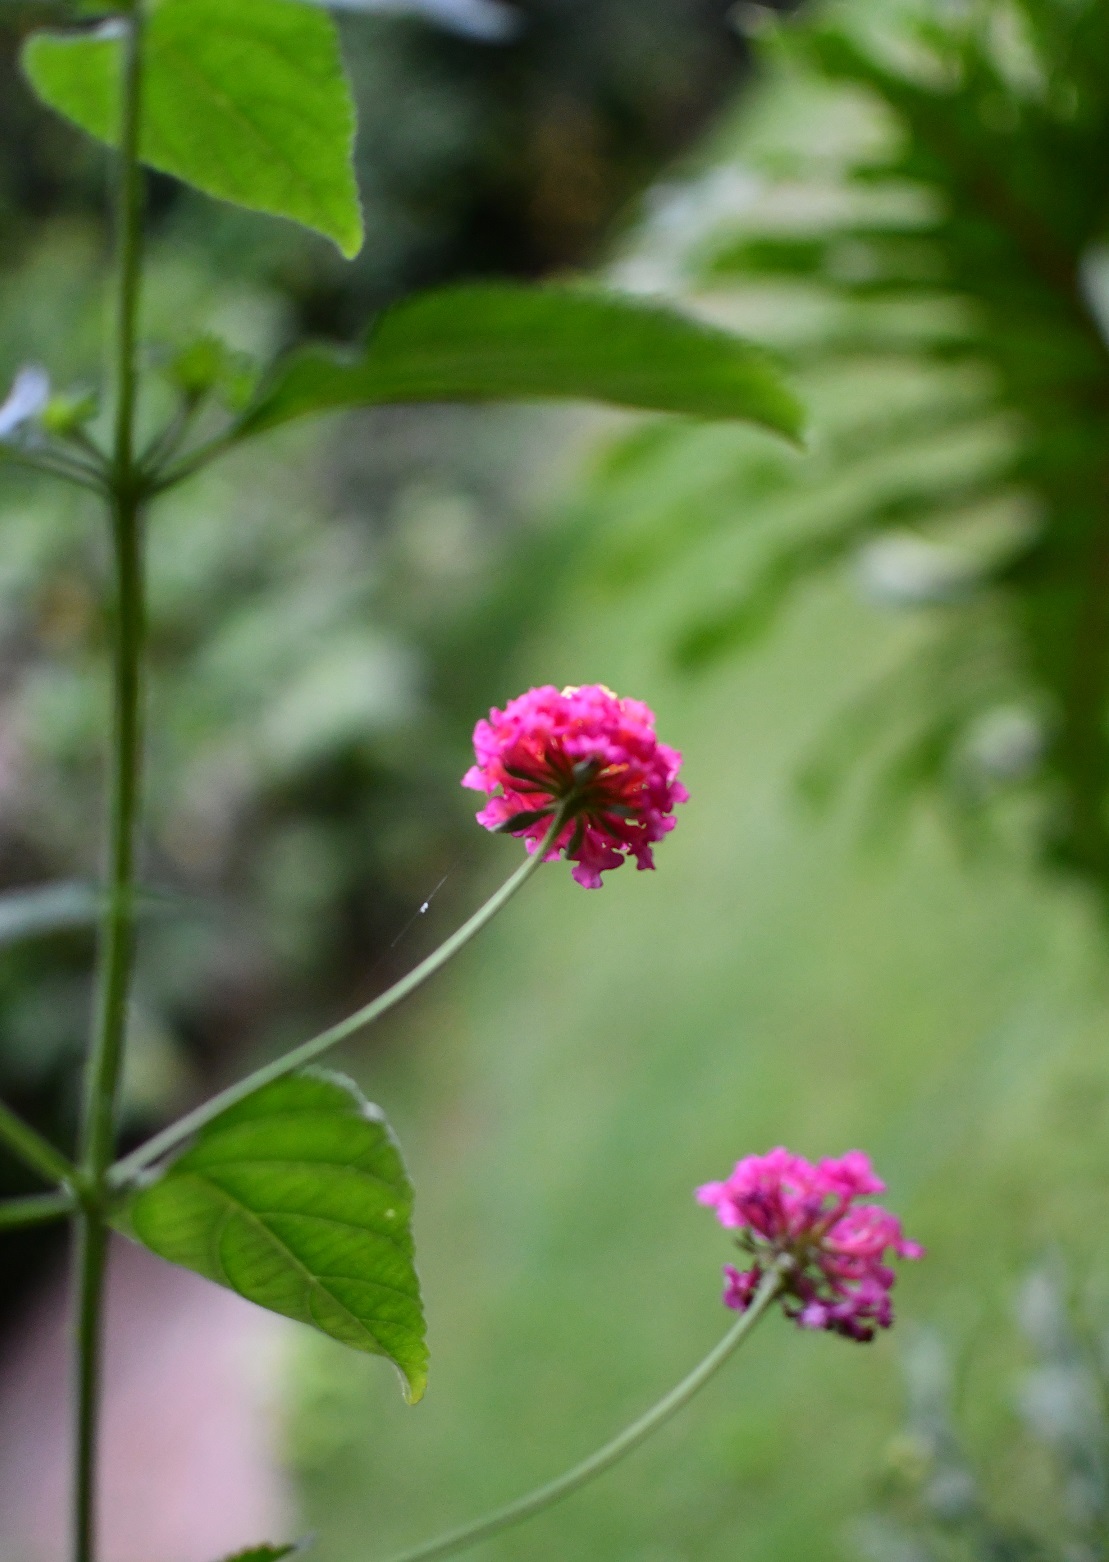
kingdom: Plantae
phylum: Tracheophyta
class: Magnoliopsida
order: Lamiales
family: Verbenaceae
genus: Lantana
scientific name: Lantana camara
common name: Lantana
